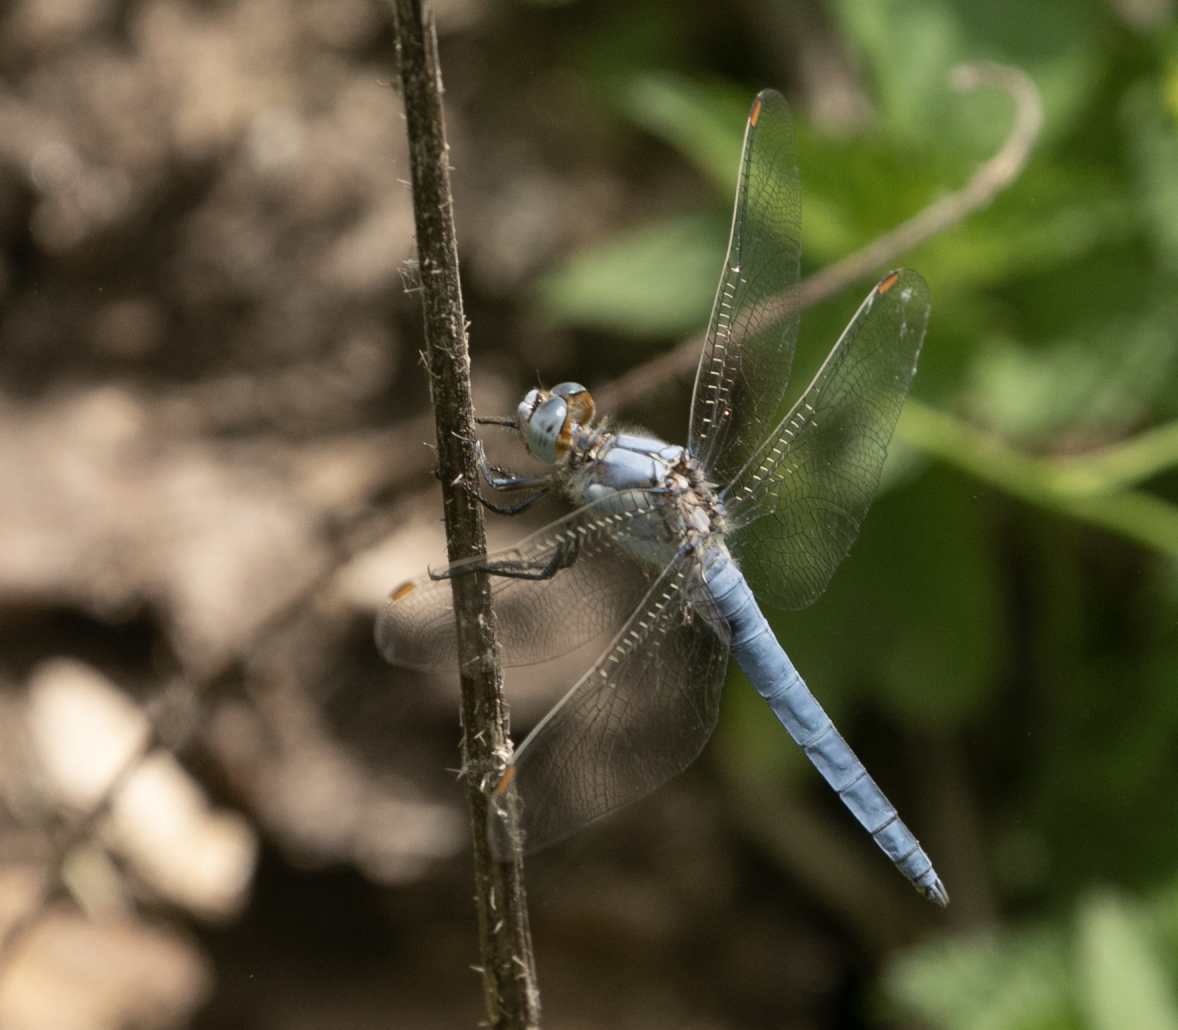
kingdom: Animalia
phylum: Arthropoda
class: Insecta
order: Odonata
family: Libellulidae
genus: Orthetrum
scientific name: Orthetrum brunneum
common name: Southern skimmer
